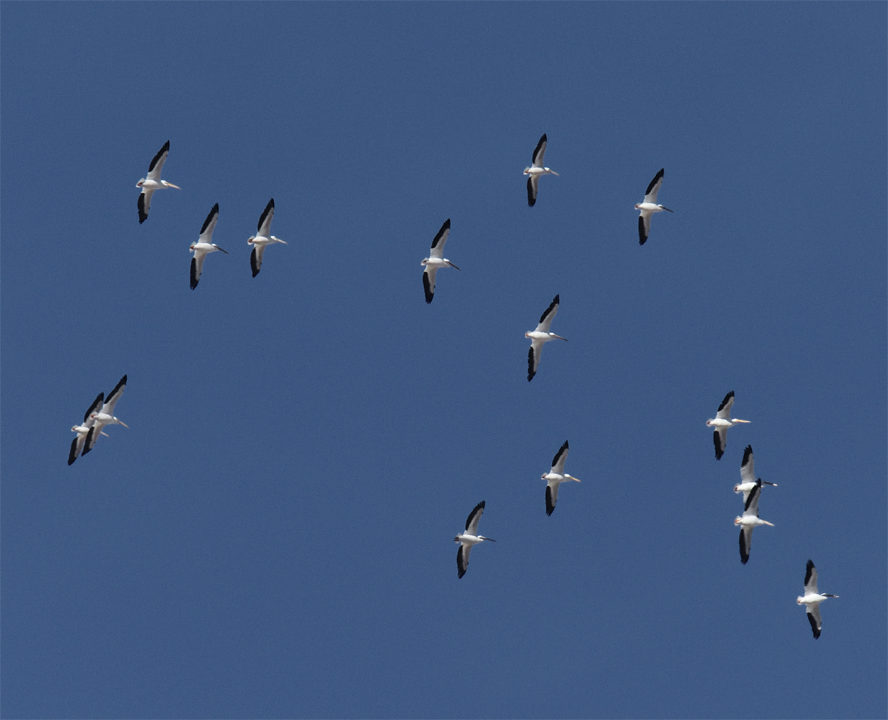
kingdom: Animalia
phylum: Chordata
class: Aves
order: Pelecaniformes
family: Pelecanidae
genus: Pelecanus
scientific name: Pelecanus erythrorhynchos
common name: American white pelican
